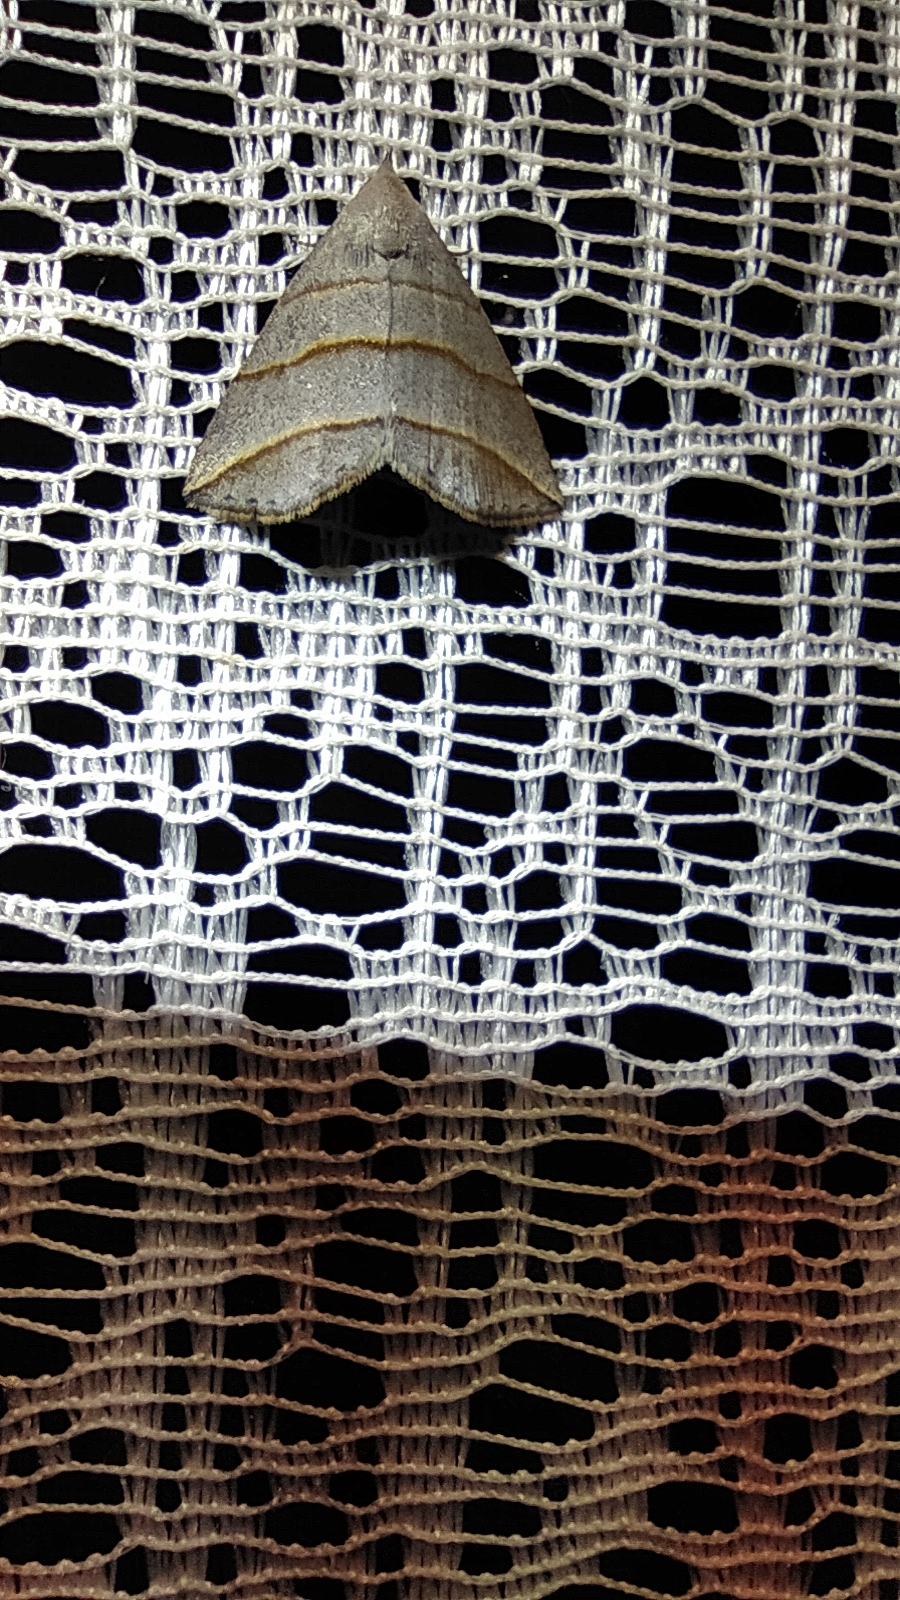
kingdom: Animalia
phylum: Arthropoda
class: Insecta
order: Lepidoptera
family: Erebidae
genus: Colobochyla
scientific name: Colobochyla salicalis
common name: Lesser belle
